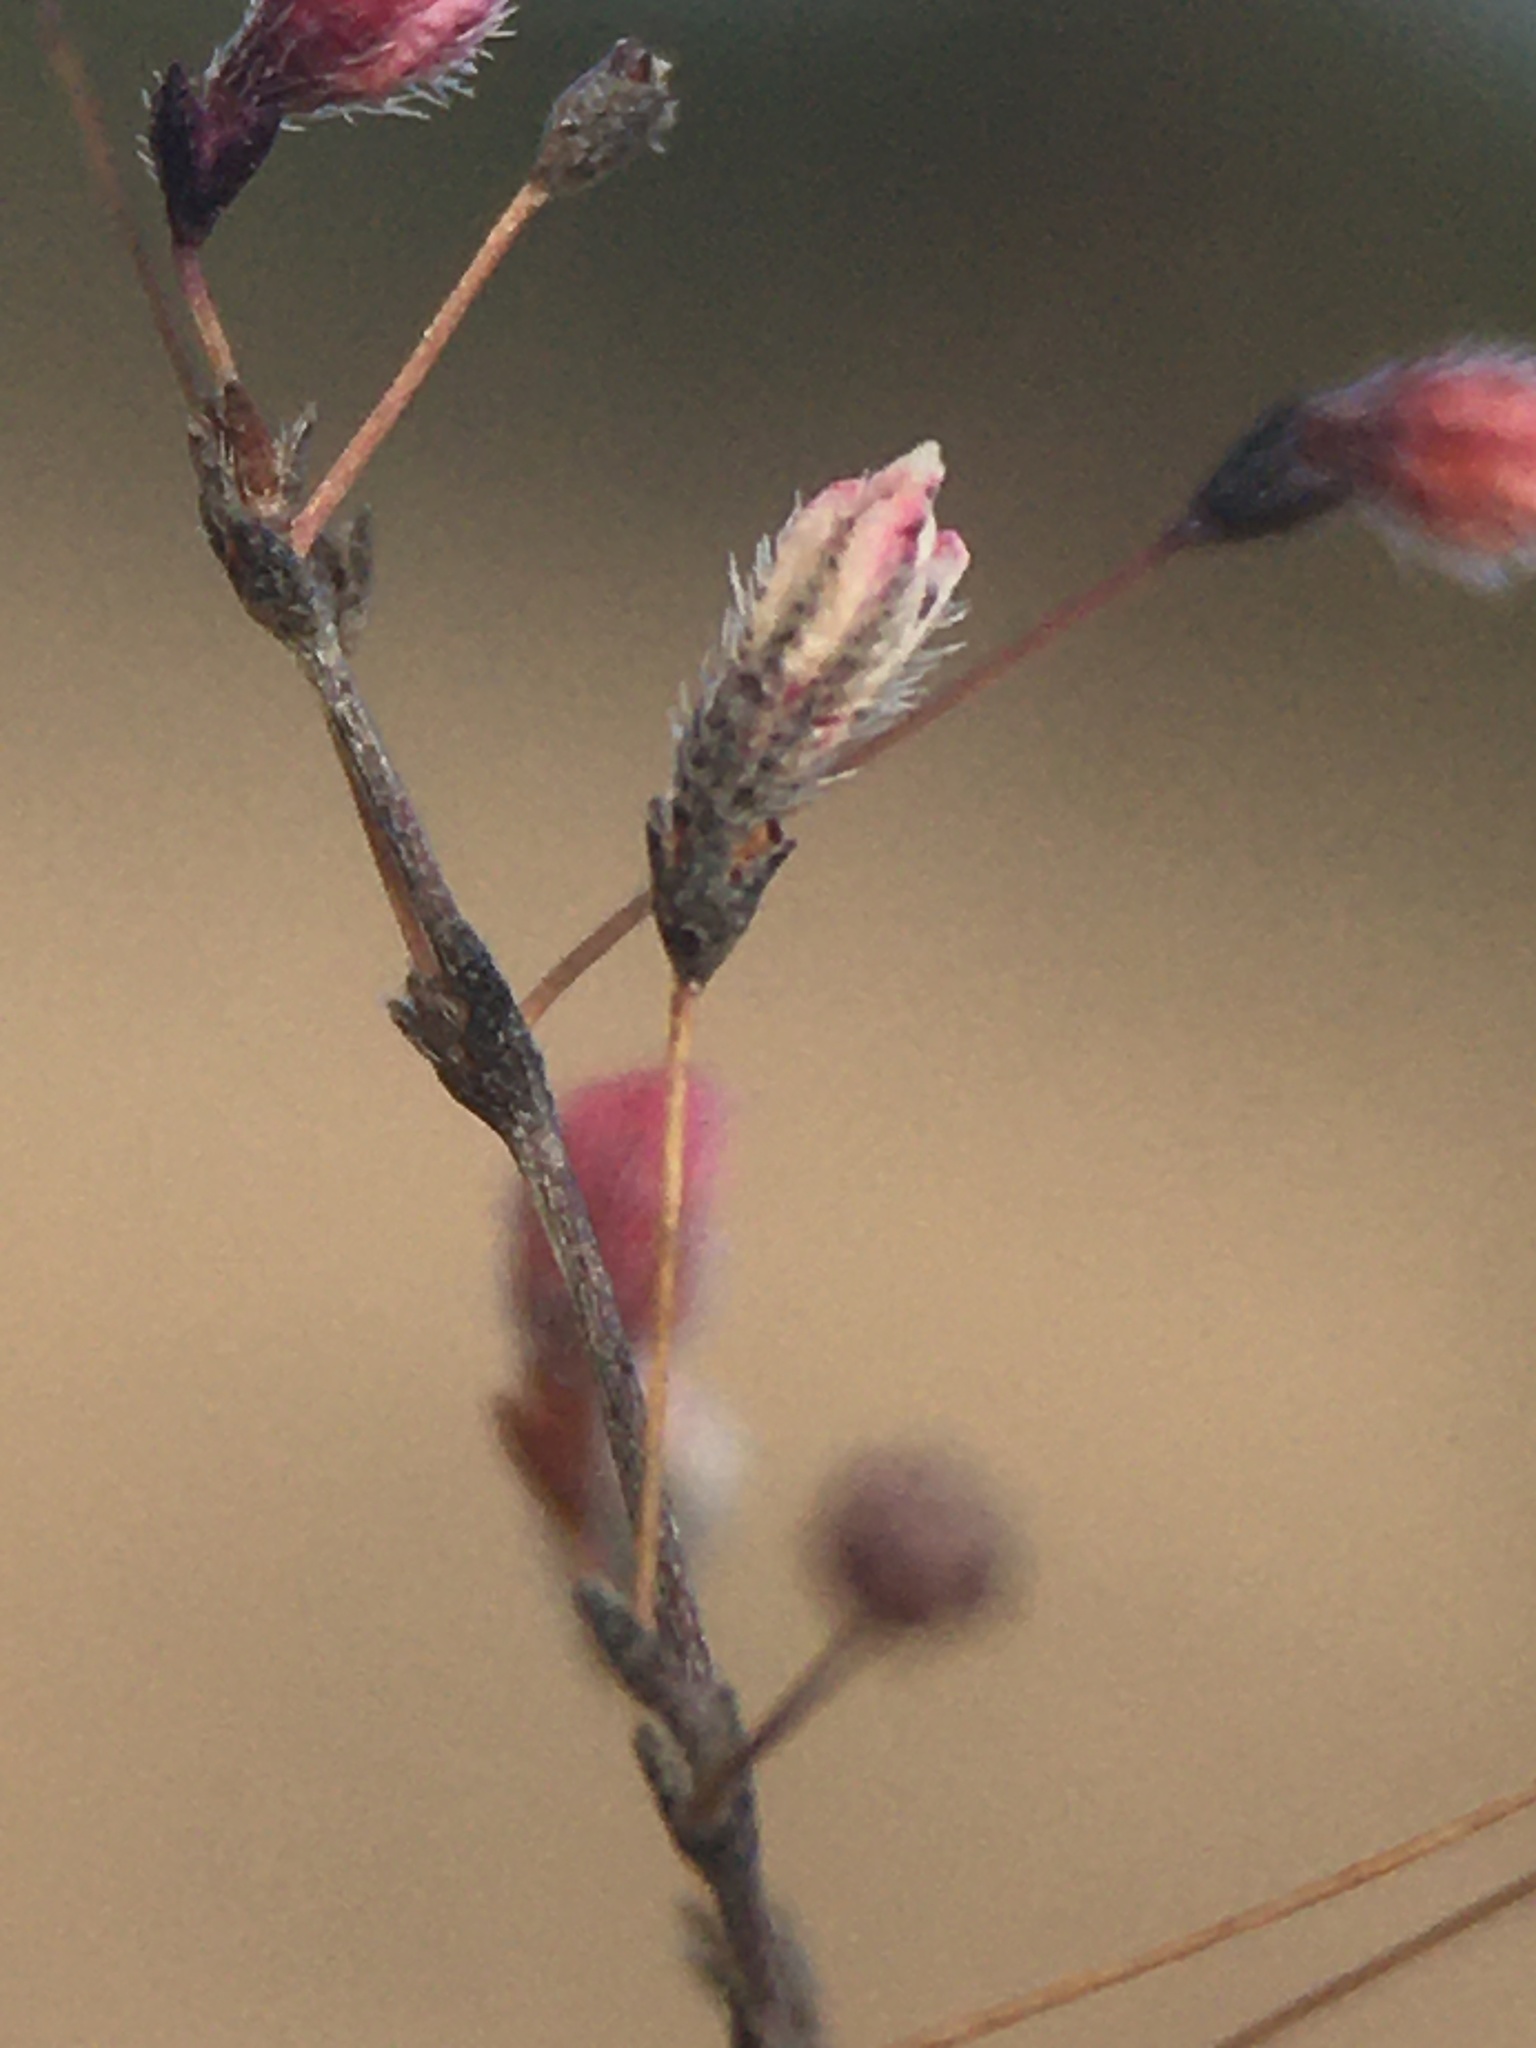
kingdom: Plantae
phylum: Tracheophyta
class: Magnoliopsida
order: Caryophyllales
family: Polygonaceae
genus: Eriogonum
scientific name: Eriogonum spergulinum
